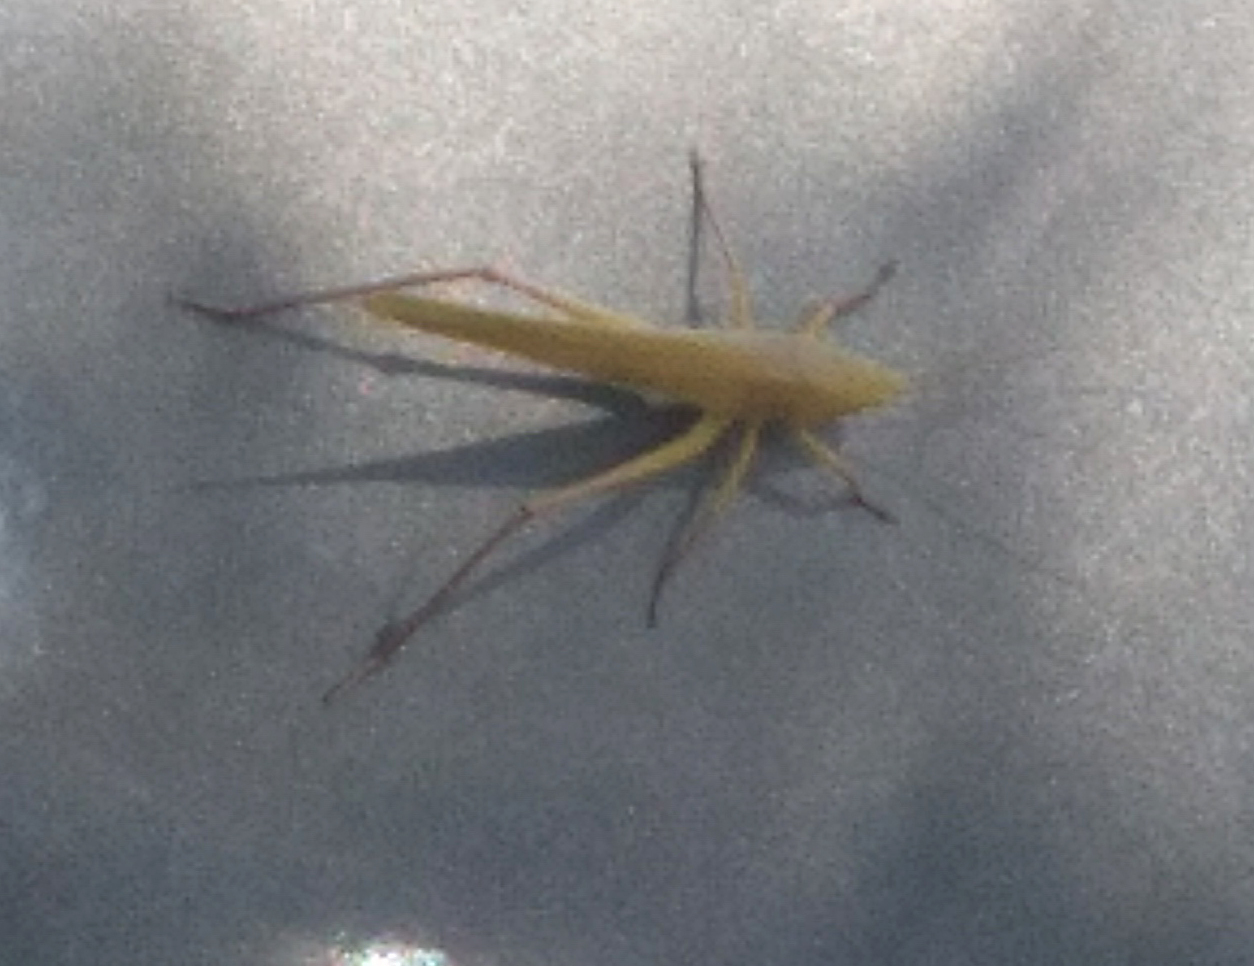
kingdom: Animalia
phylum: Arthropoda
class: Insecta
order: Orthoptera
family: Tettigoniidae
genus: Neoconocephalus
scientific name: Neoconocephalus triops
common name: Broad-tipped conehead
